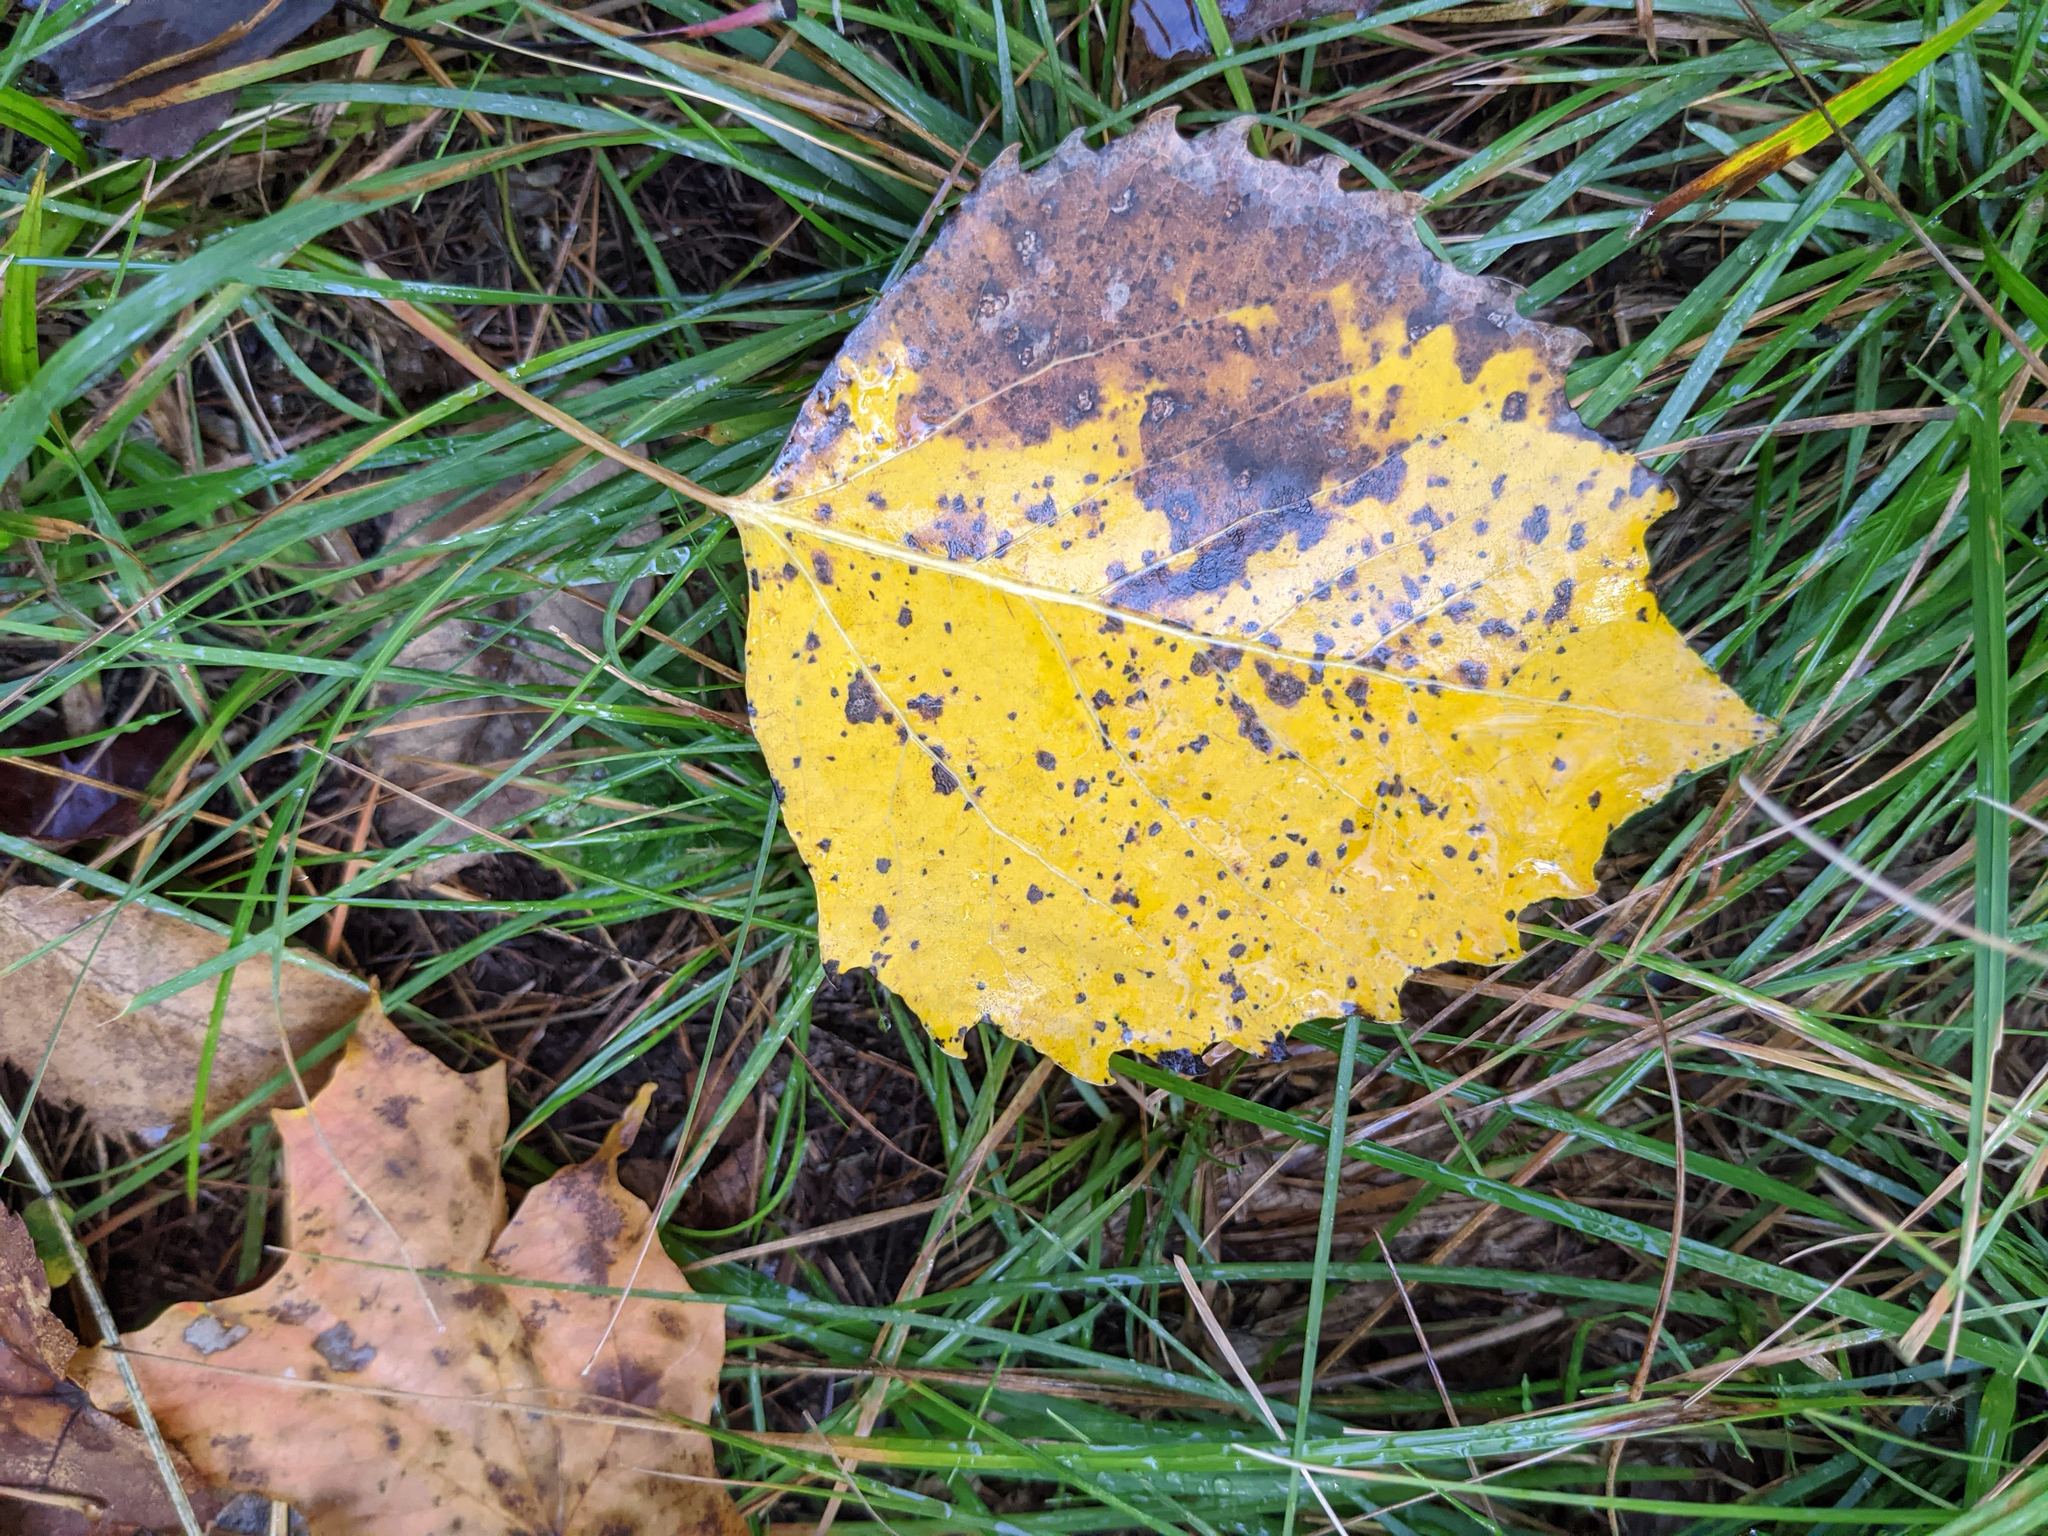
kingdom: Plantae
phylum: Tracheophyta
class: Magnoliopsida
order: Malpighiales
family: Salicaceae
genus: Populus
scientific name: Populus grandidentata
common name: Bigtooth aspen
